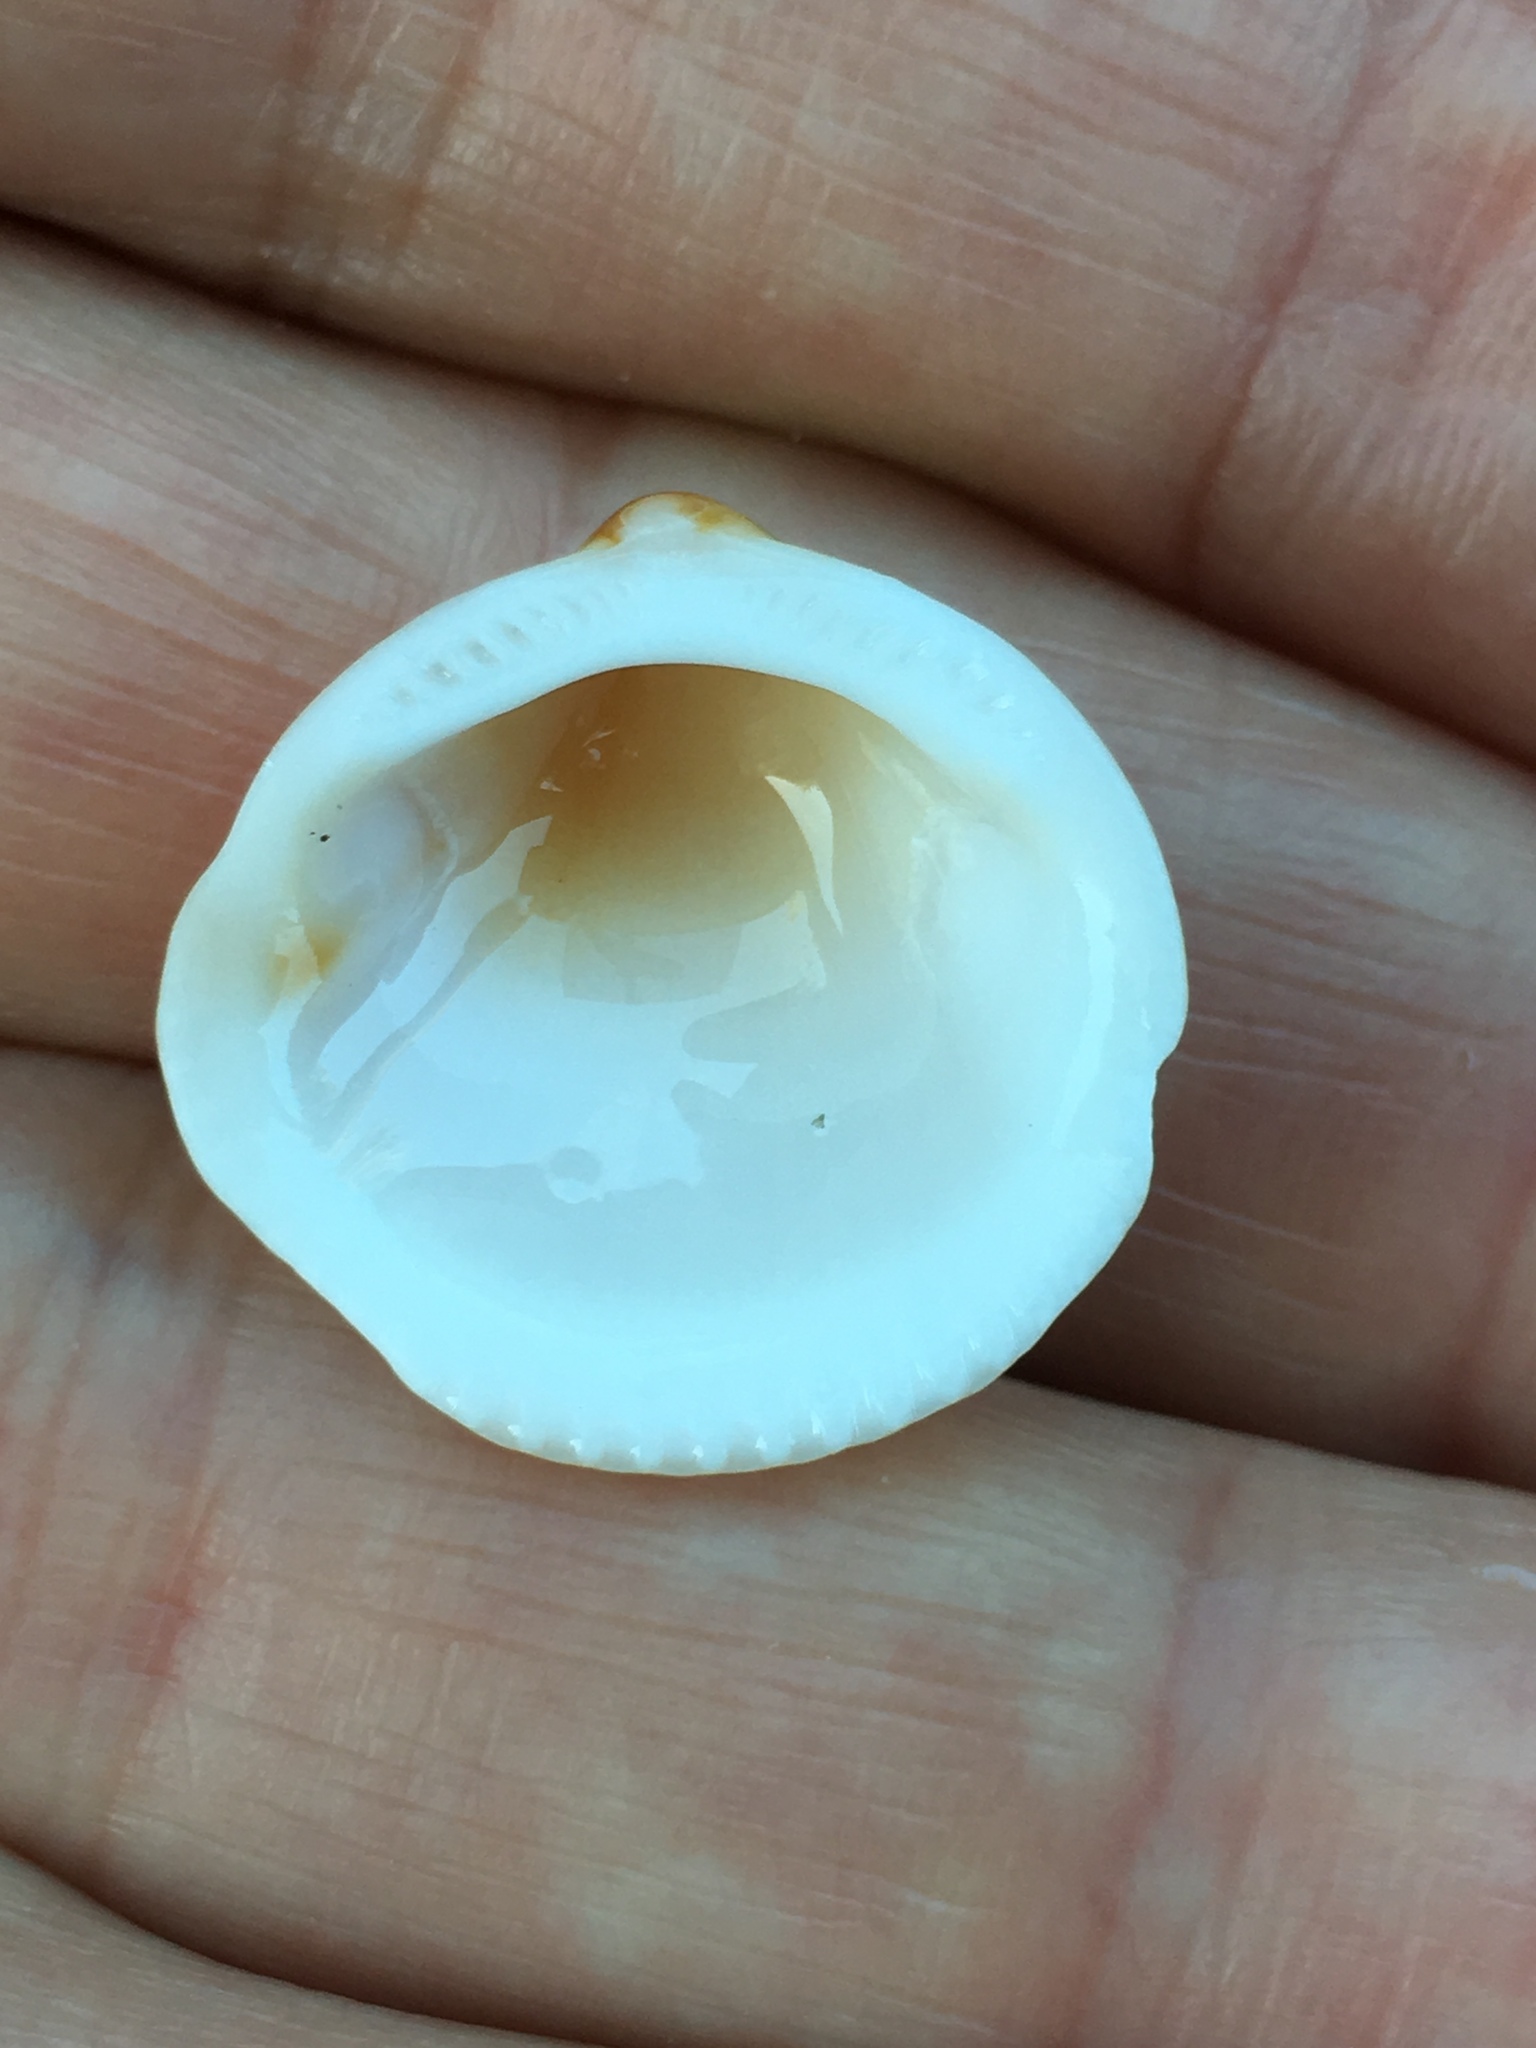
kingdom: Animalia
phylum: Mollusca
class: Bivalvia
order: Arcida
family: Glycymerididae
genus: Glycymeris
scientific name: Glycymeris spectralis
